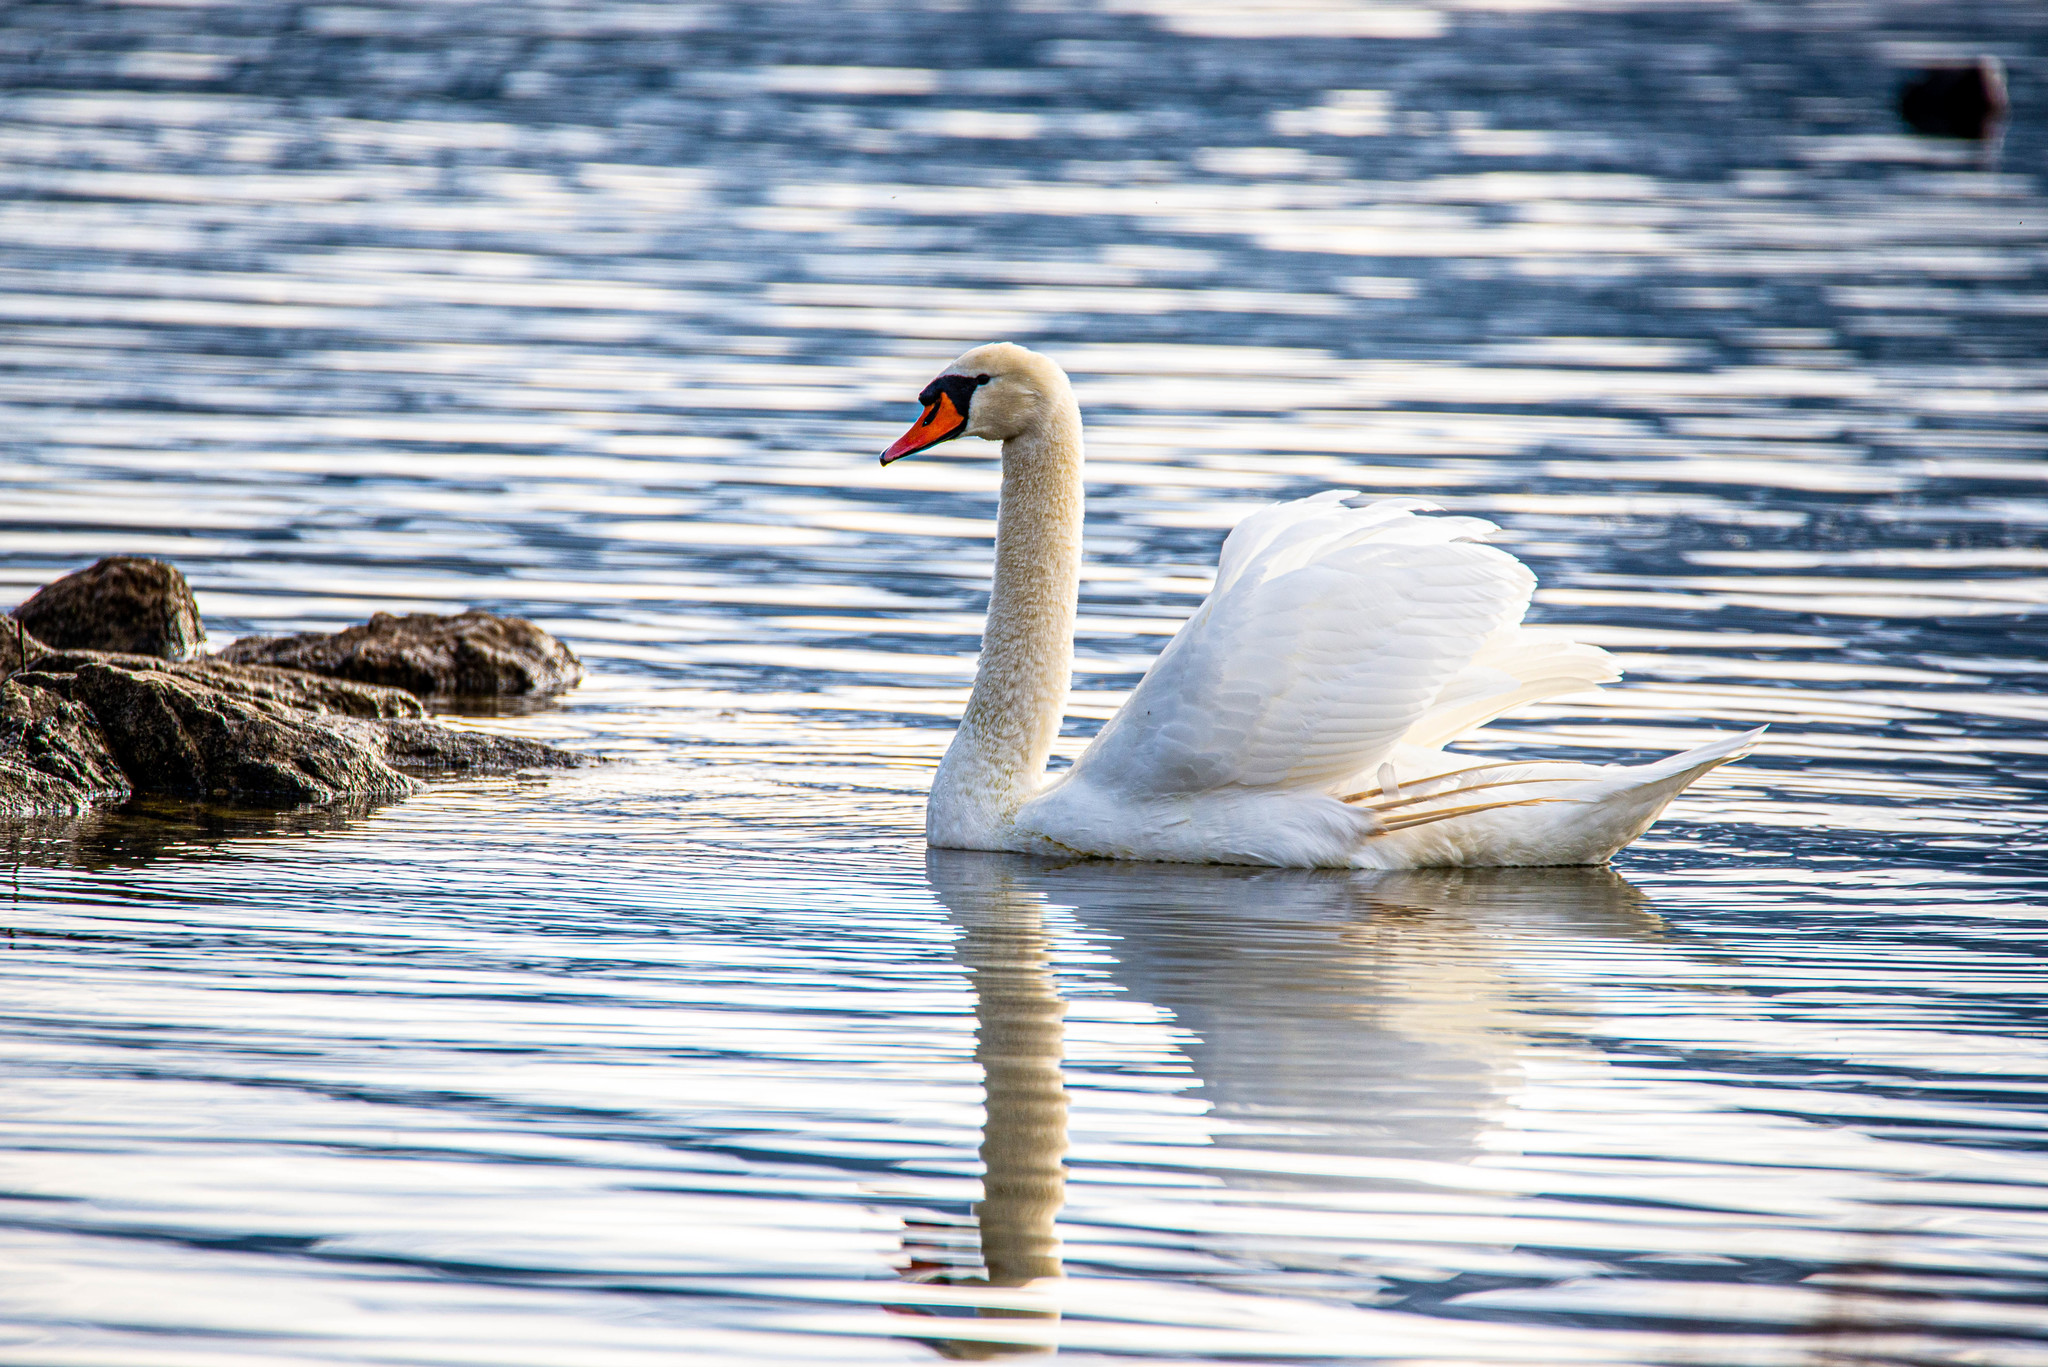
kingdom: Animalia
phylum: Chordata
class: Aves
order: Anseriformes
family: Anatidae
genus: Cygnus
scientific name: Cygnus olor
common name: Mute swan
